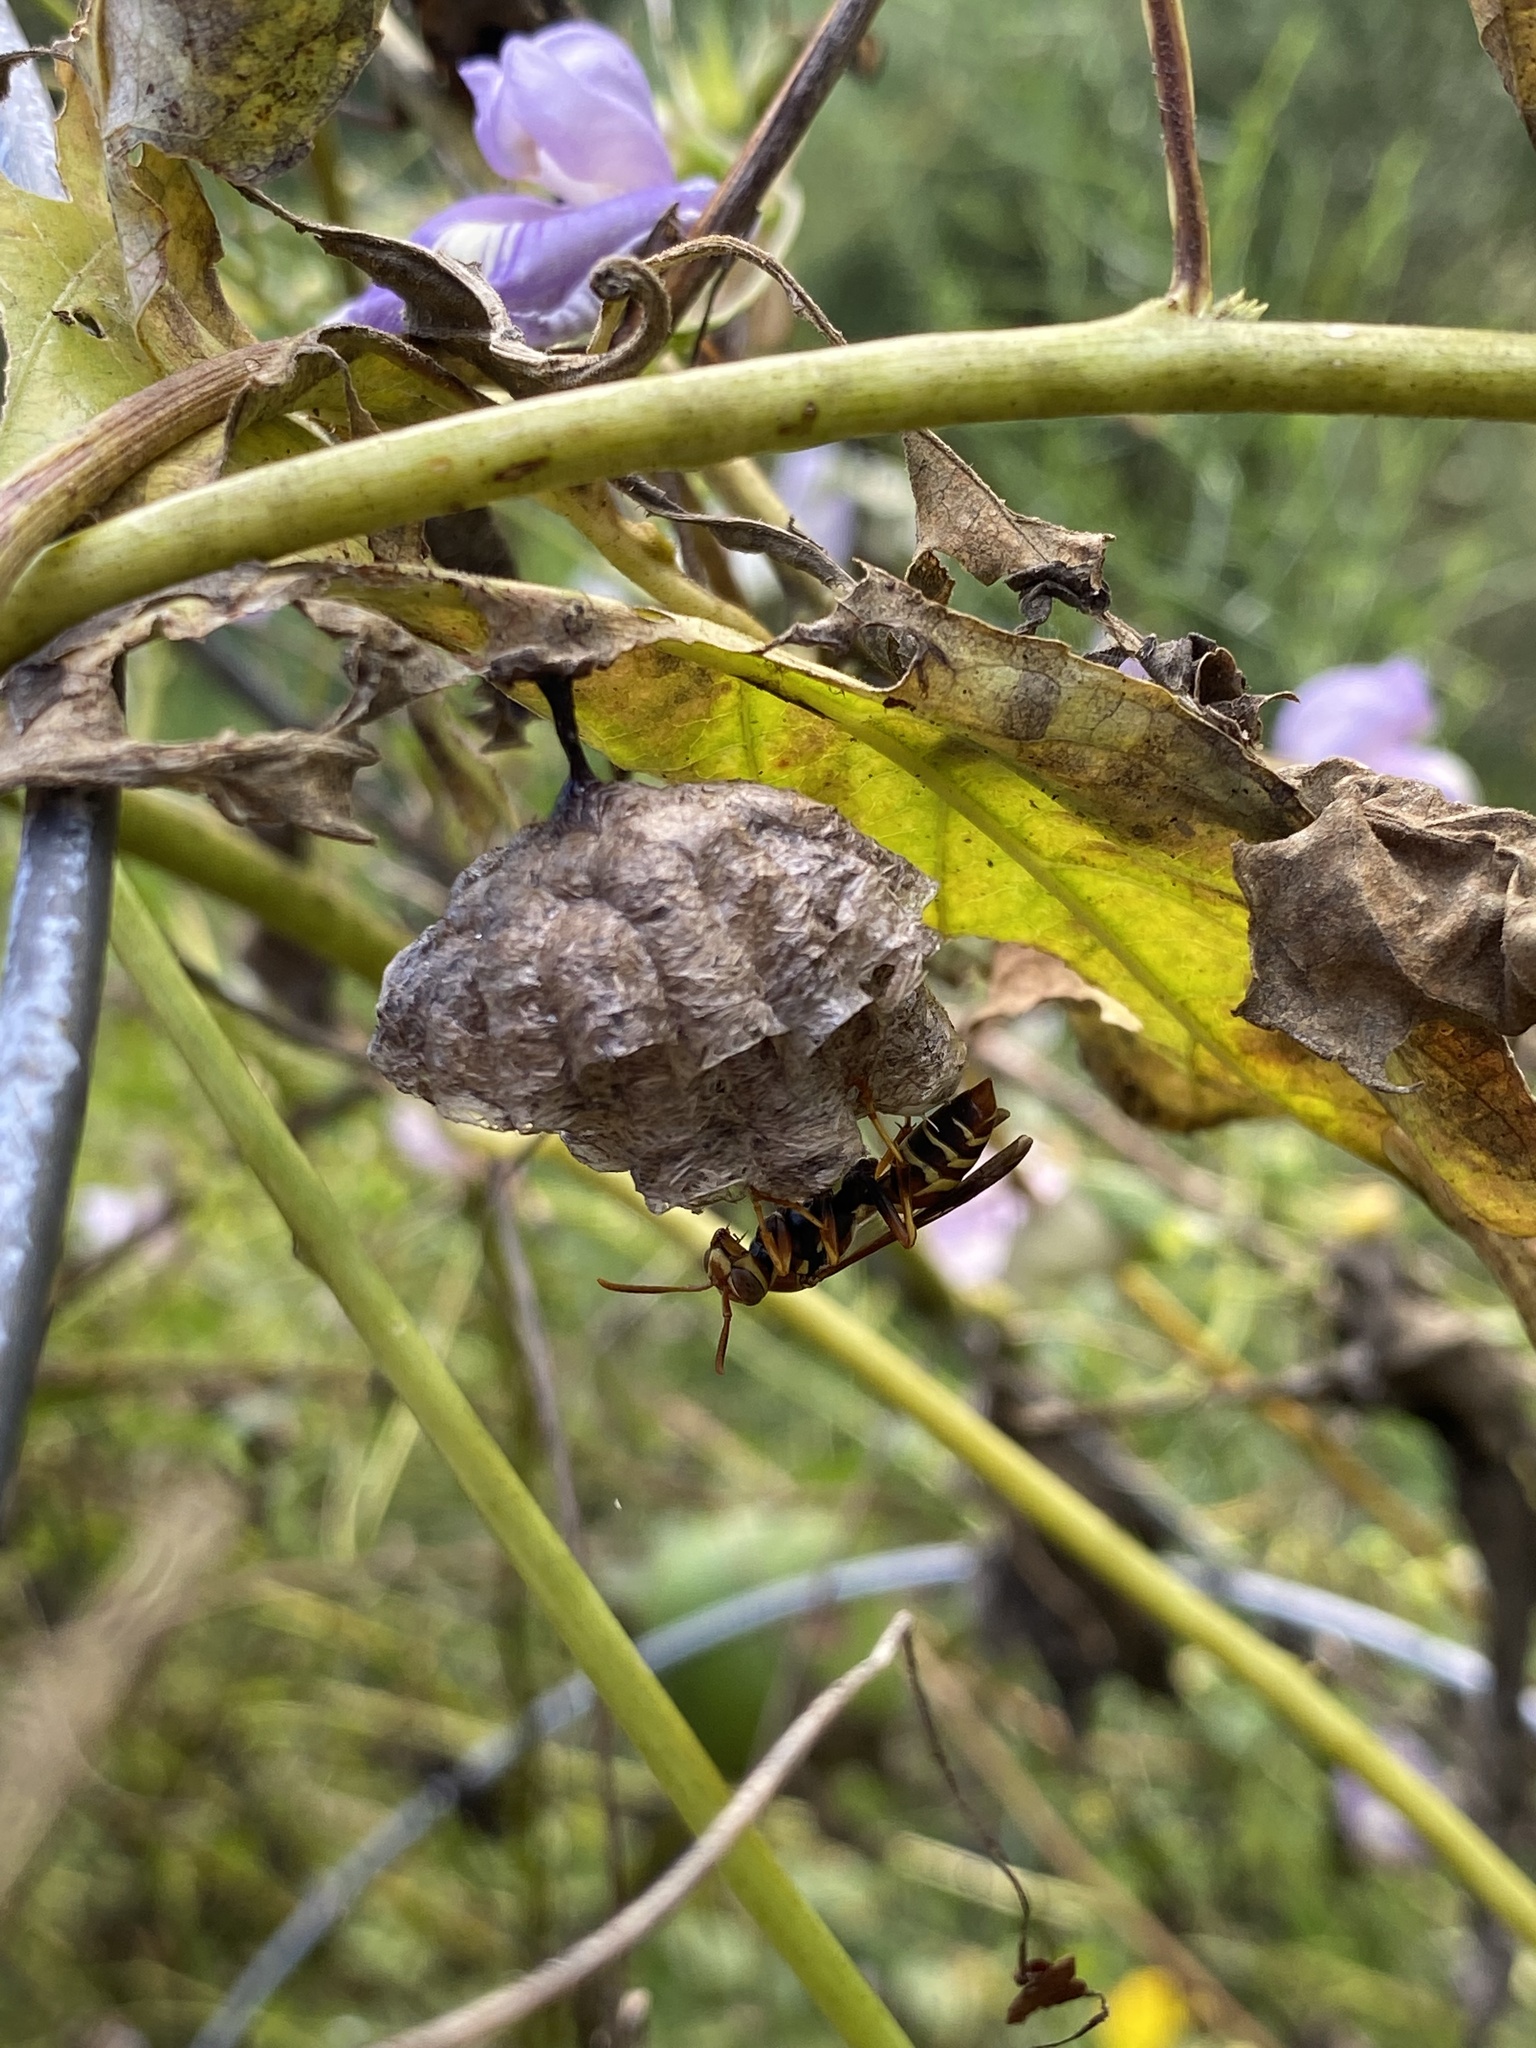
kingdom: Animalia
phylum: Arthropoda
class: Insecta
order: Hymenoptera
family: Eumenidae
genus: Polistes
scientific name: Polistes dorsalis
